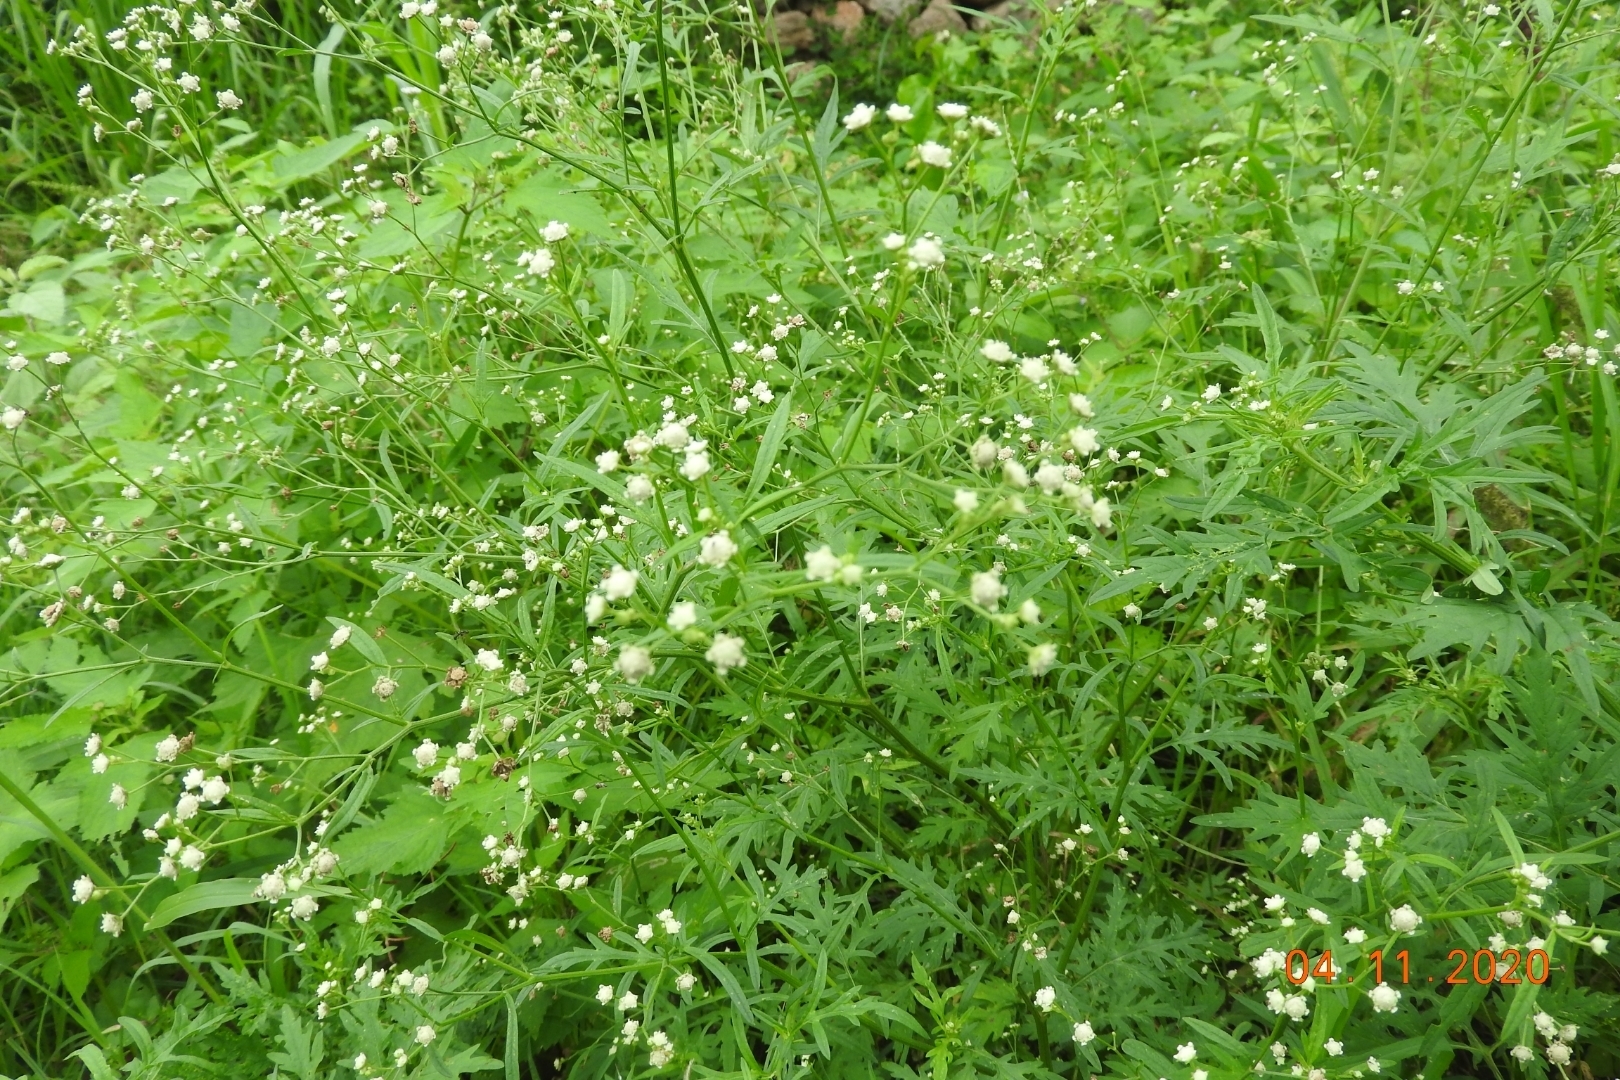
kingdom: Plantae
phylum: Tracheophyta
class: Magnoliopsida
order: Asterales
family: Asteraceae
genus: Parthenium
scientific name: Parthenium hysterophorus
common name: Santa maria feverfew
